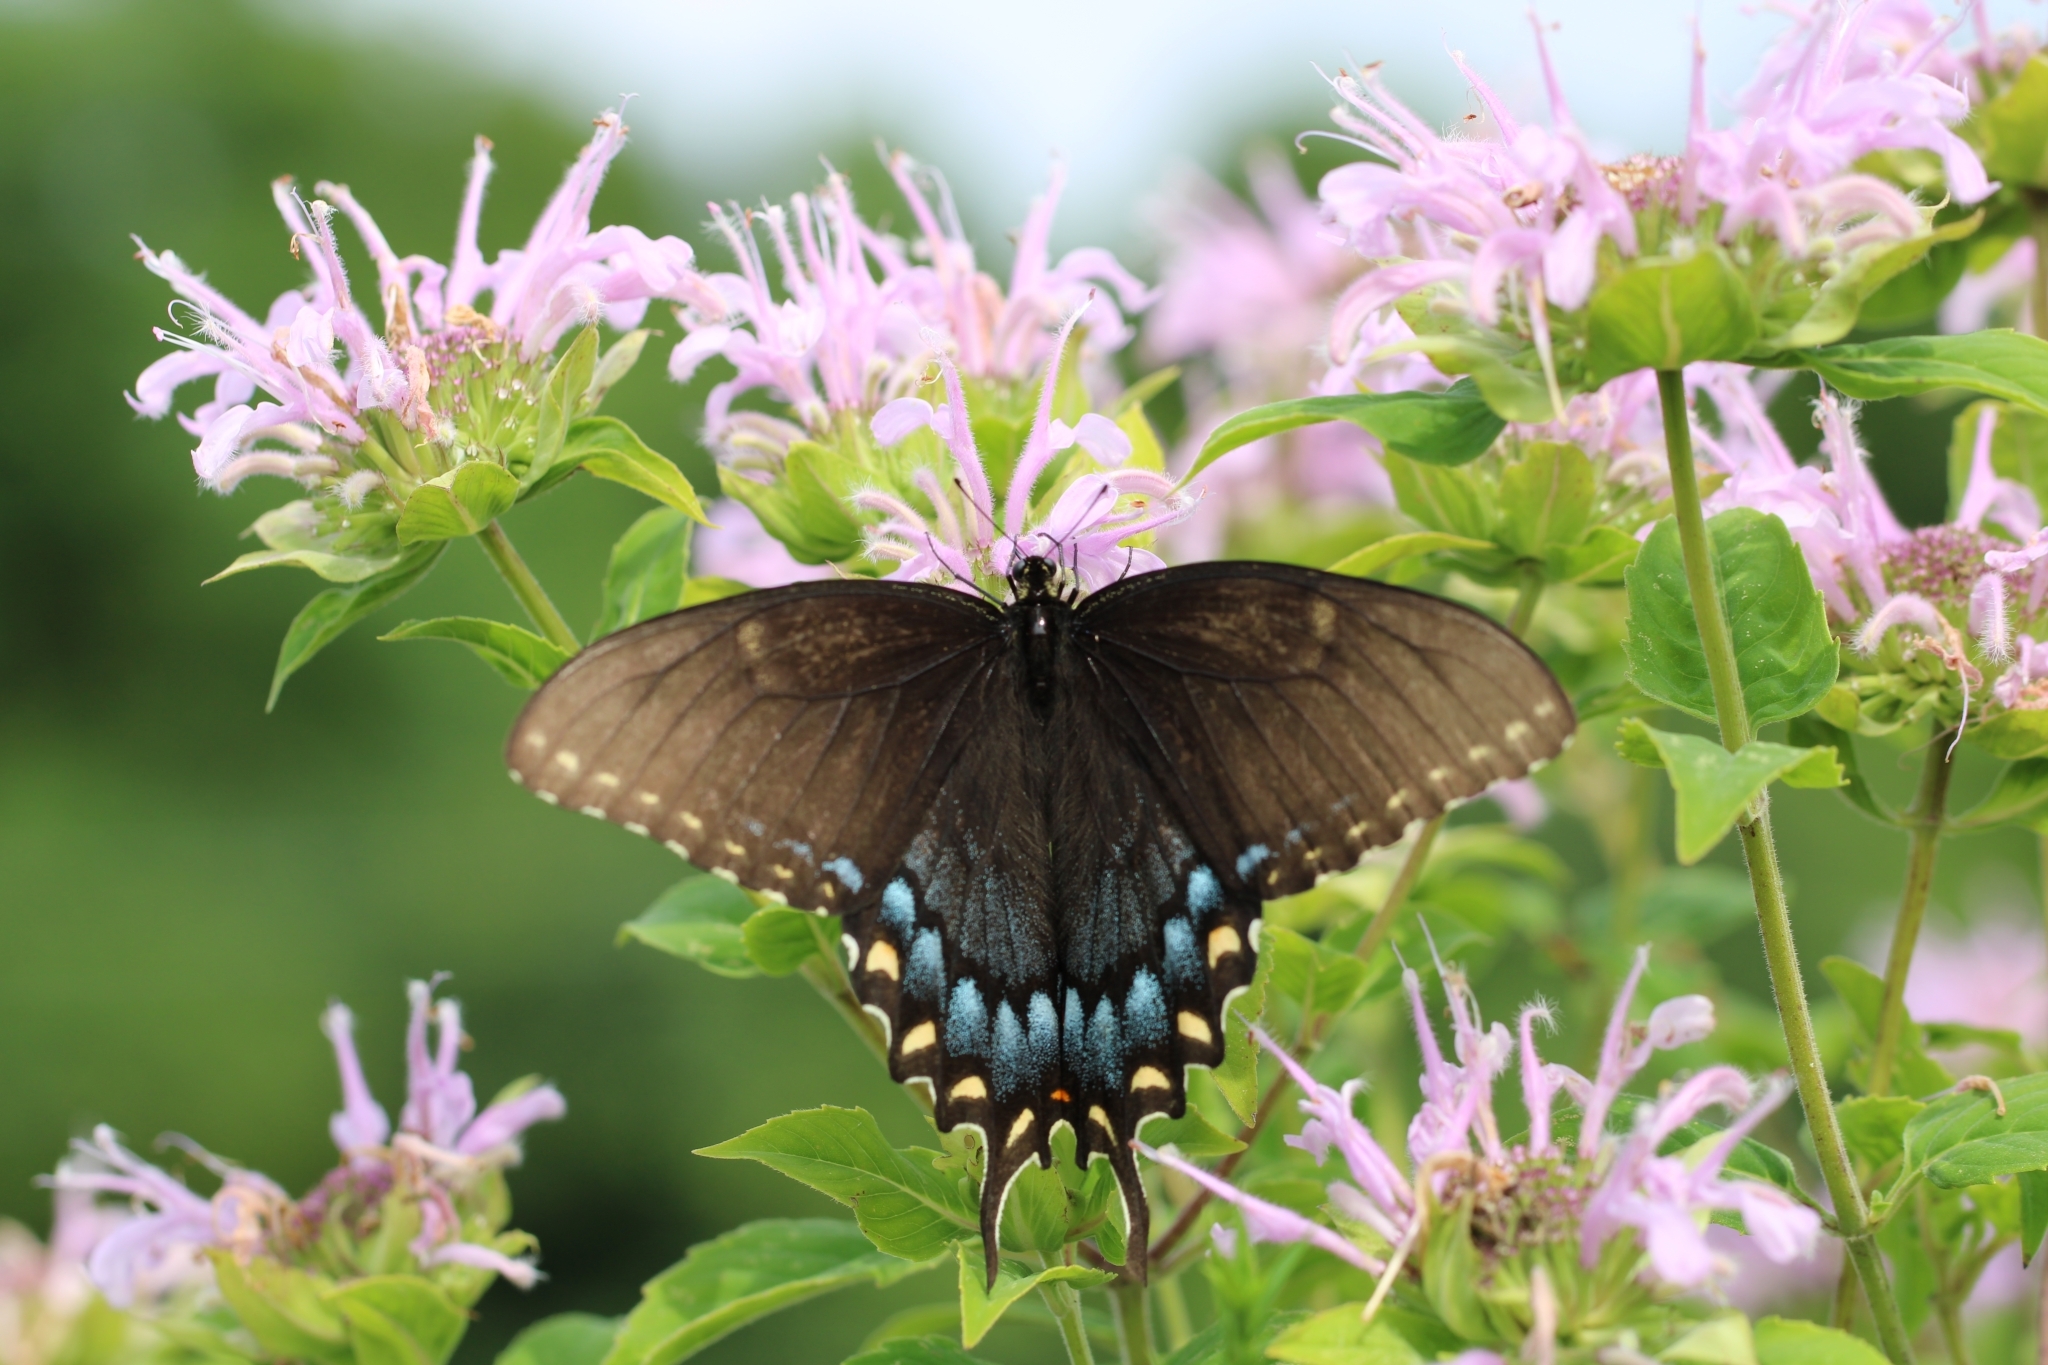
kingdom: Animalia
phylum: Arthropoda
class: Insecta
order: Lepidoptera
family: Papilionidae
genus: Papilio
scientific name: Papilio glaucus
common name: Tiger swallowtail
